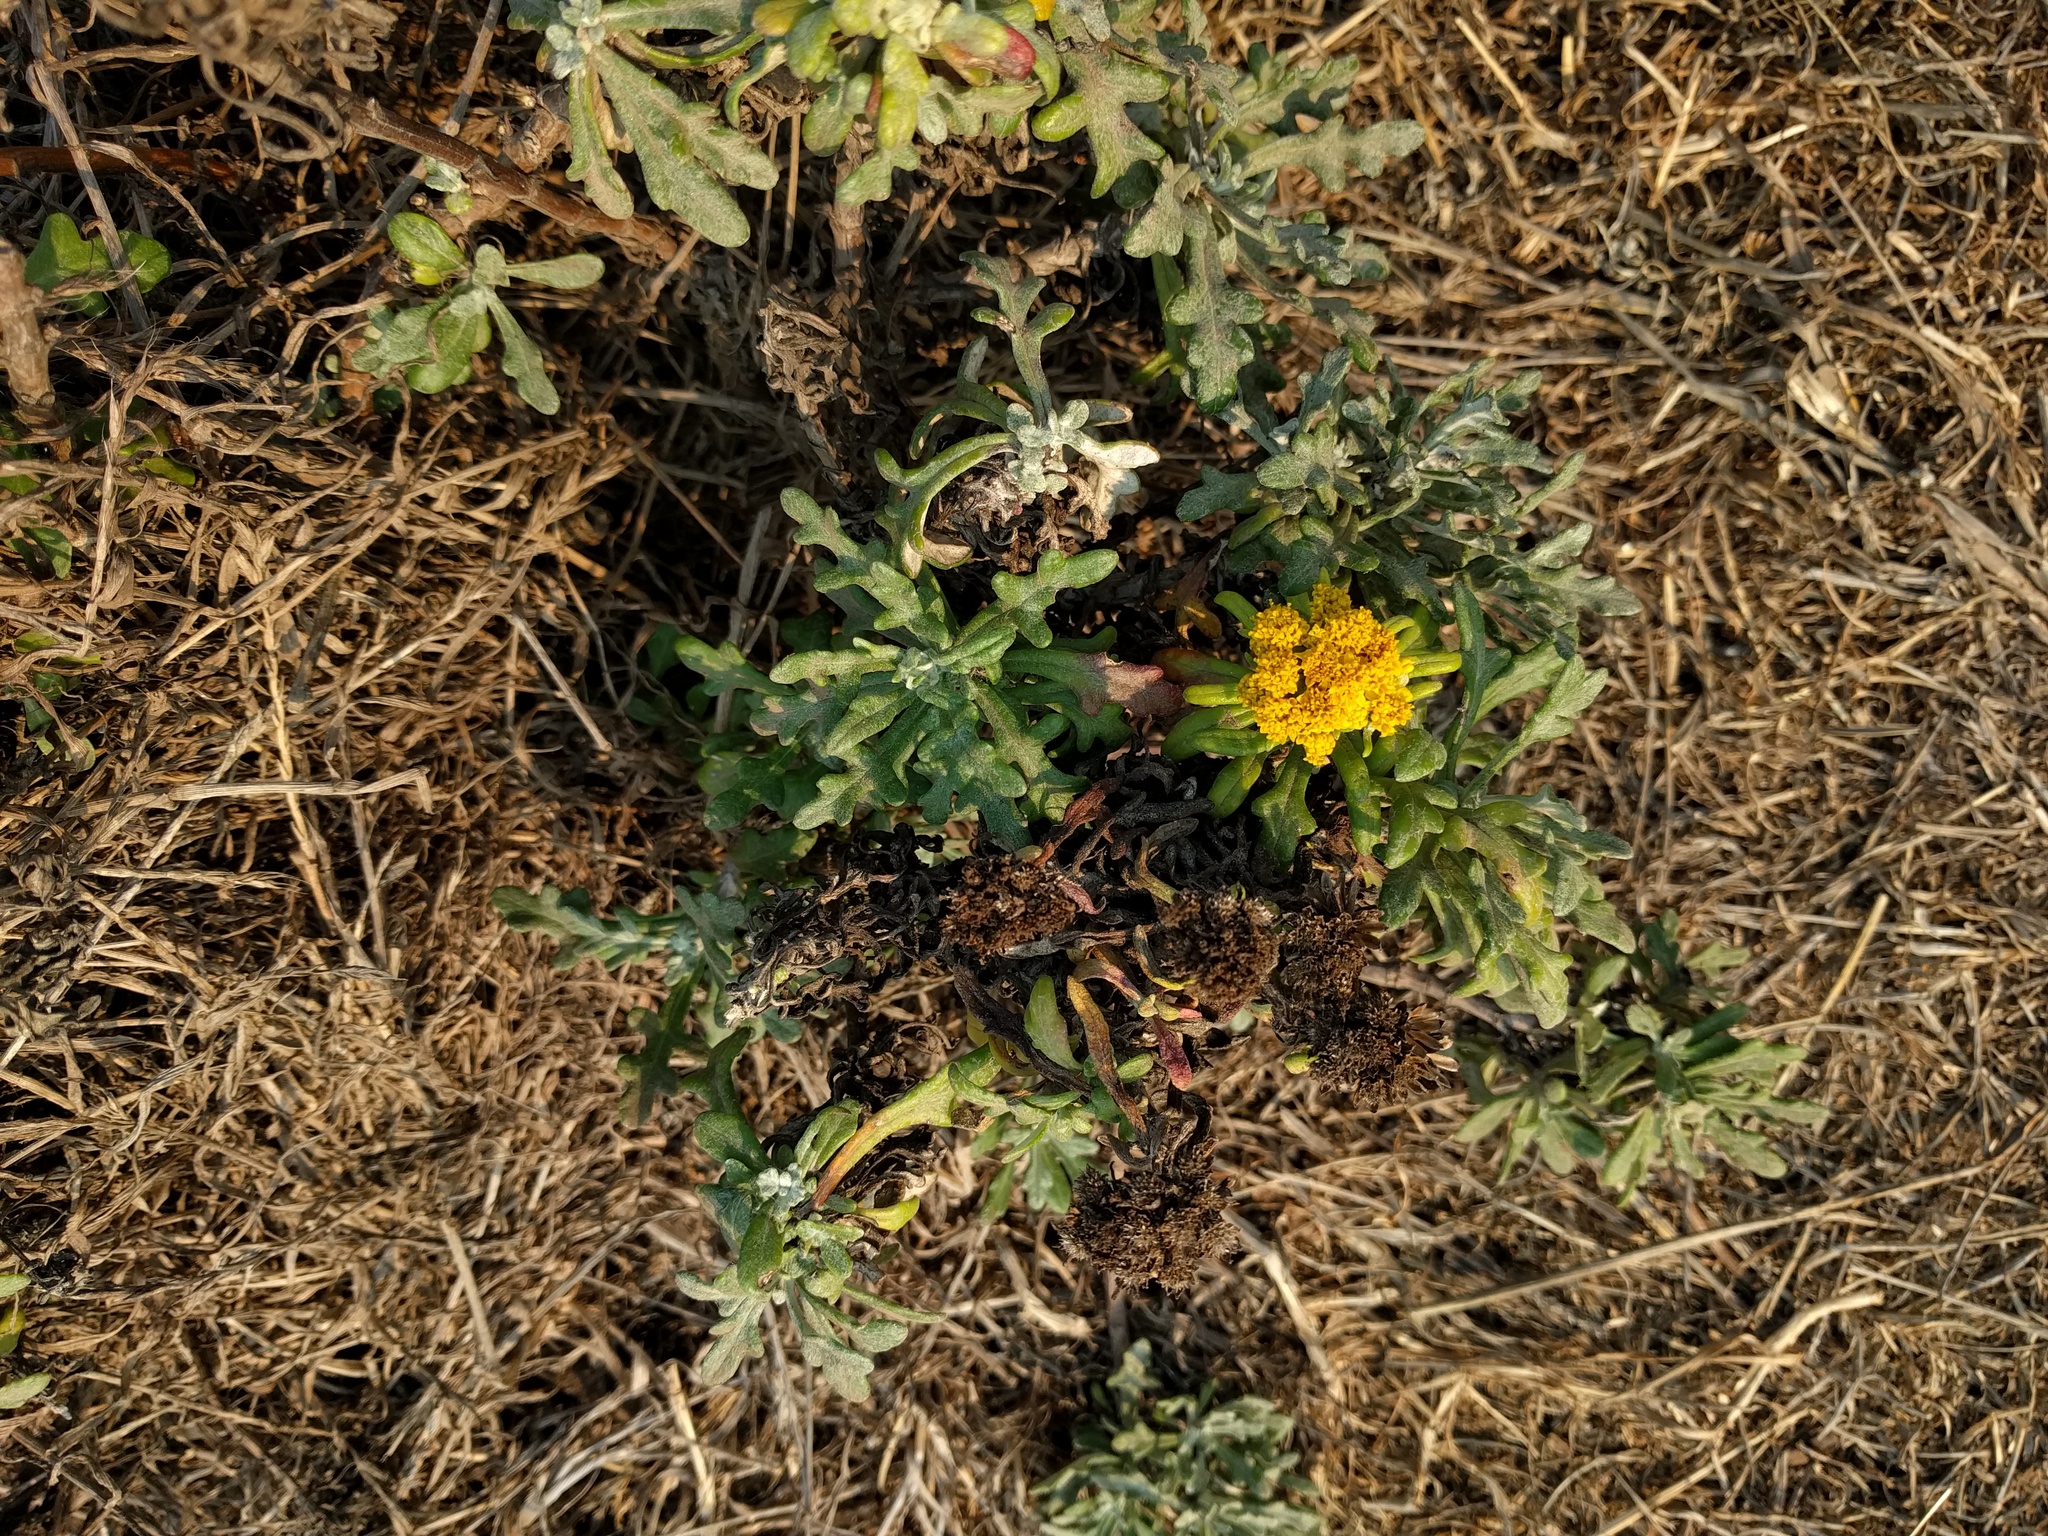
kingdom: Plantae
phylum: Tracheophyta
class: Magnoliopsida
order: Asterales
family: Asteraceae
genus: Eriophyllum
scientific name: Eriophyllum staechadifolium
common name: Lizardtail
